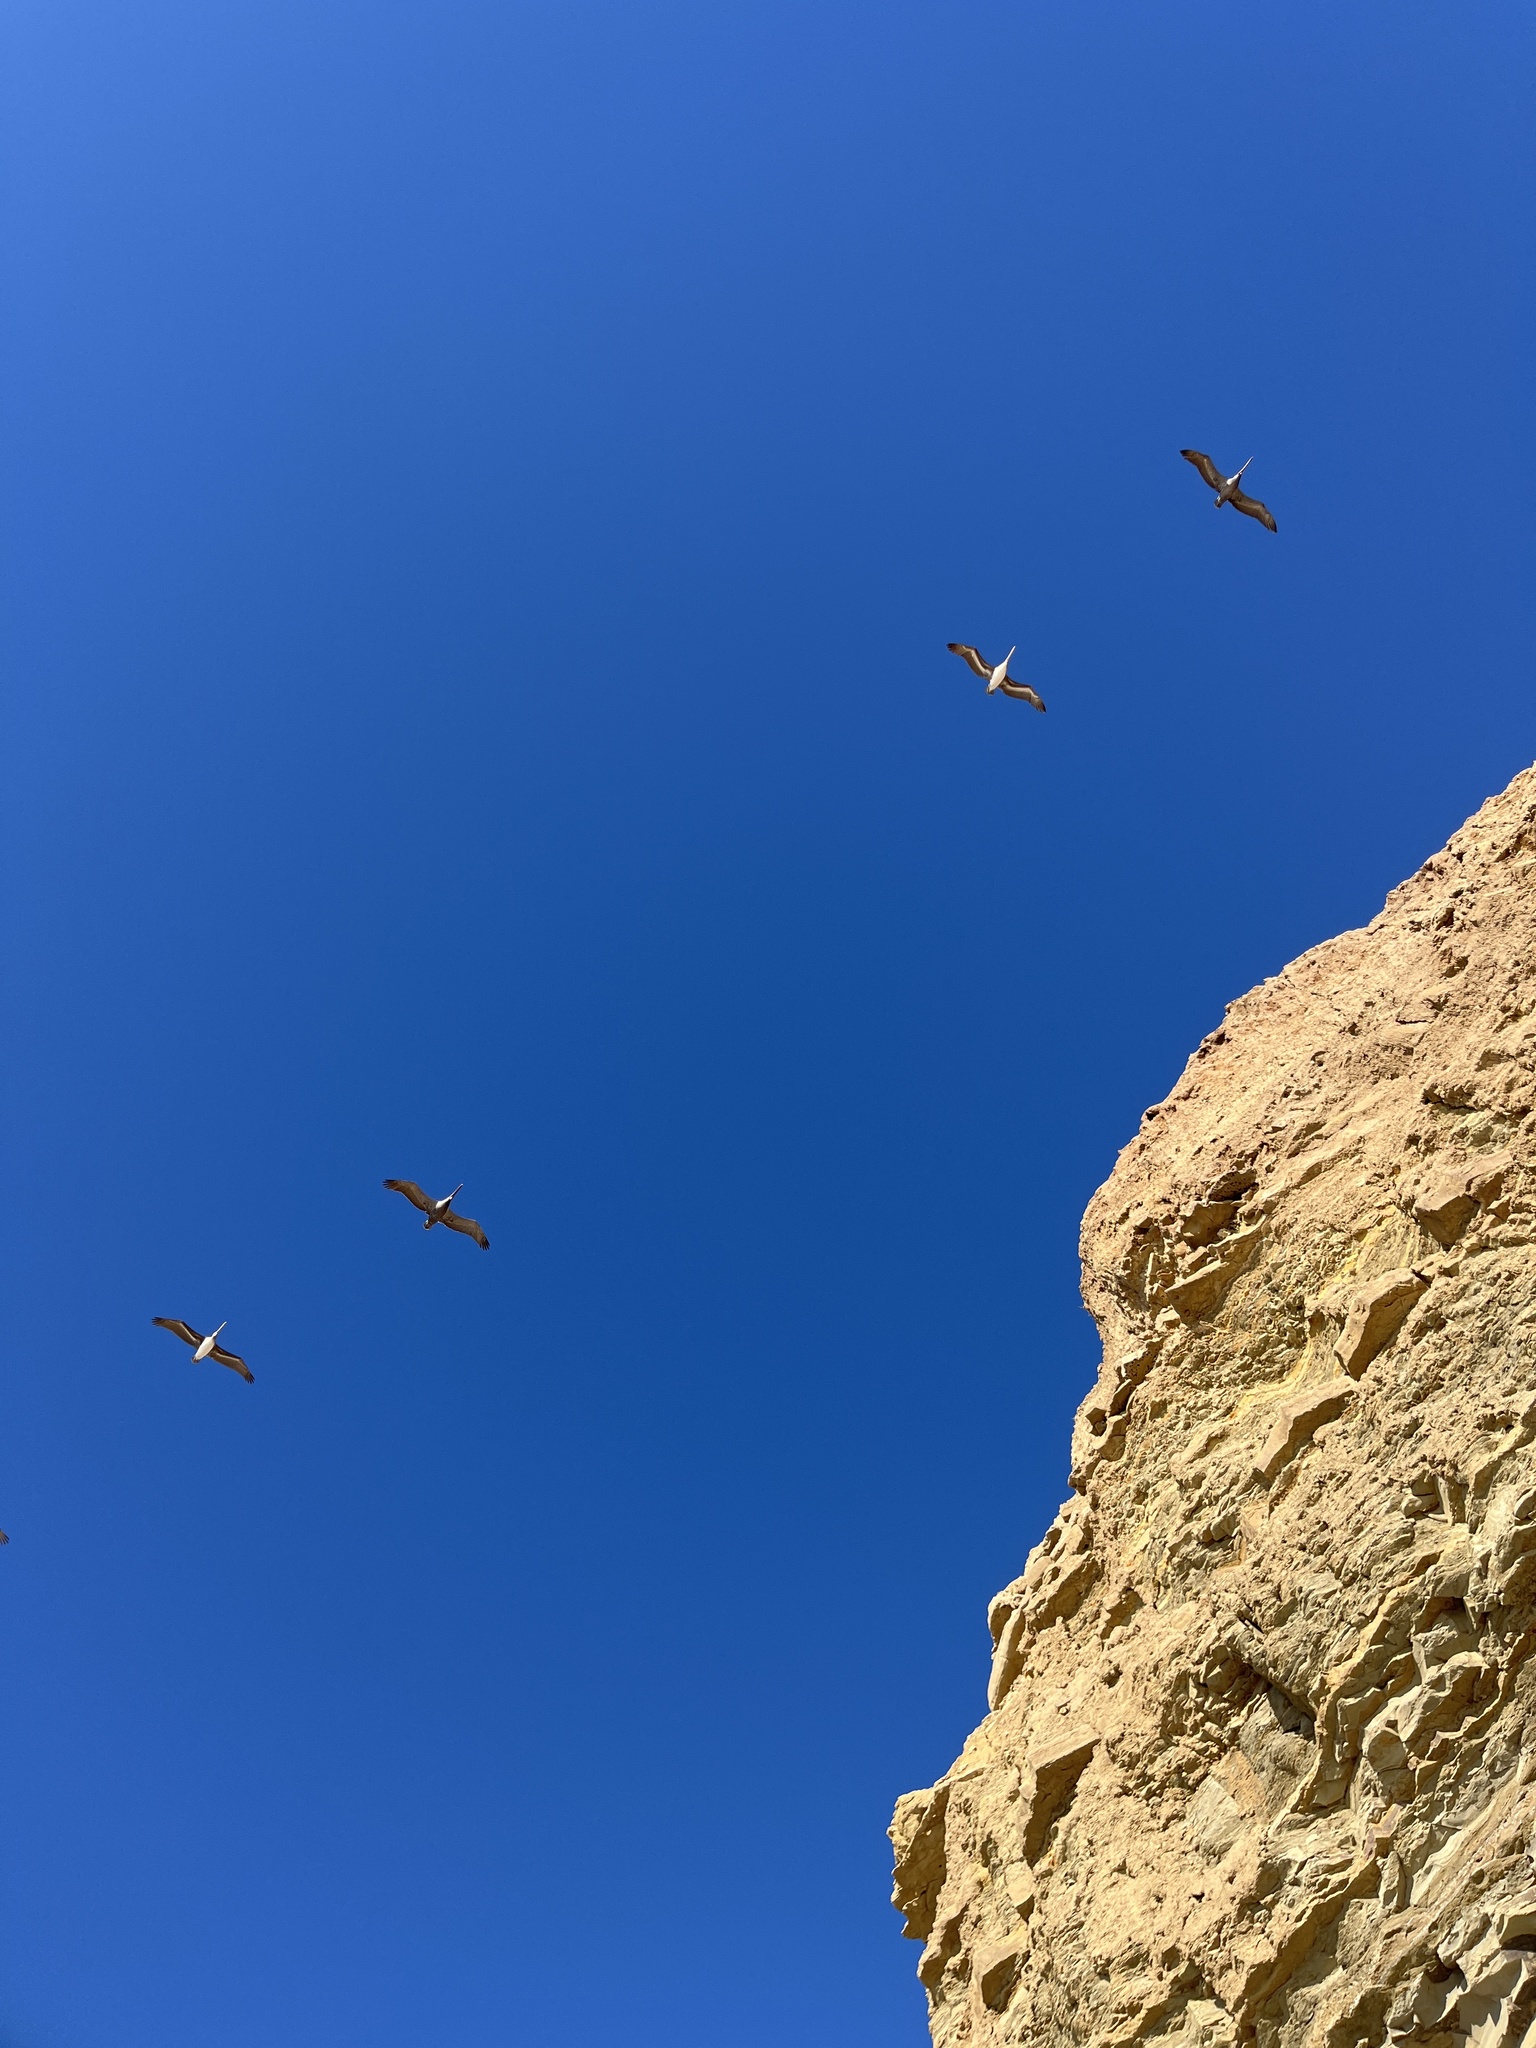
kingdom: Animalia
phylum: Chordata
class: Aves
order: Pelecaniformes
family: Pelecanidae
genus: Pelecanus
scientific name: Pelecanus occidentalis
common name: Brown pelican
